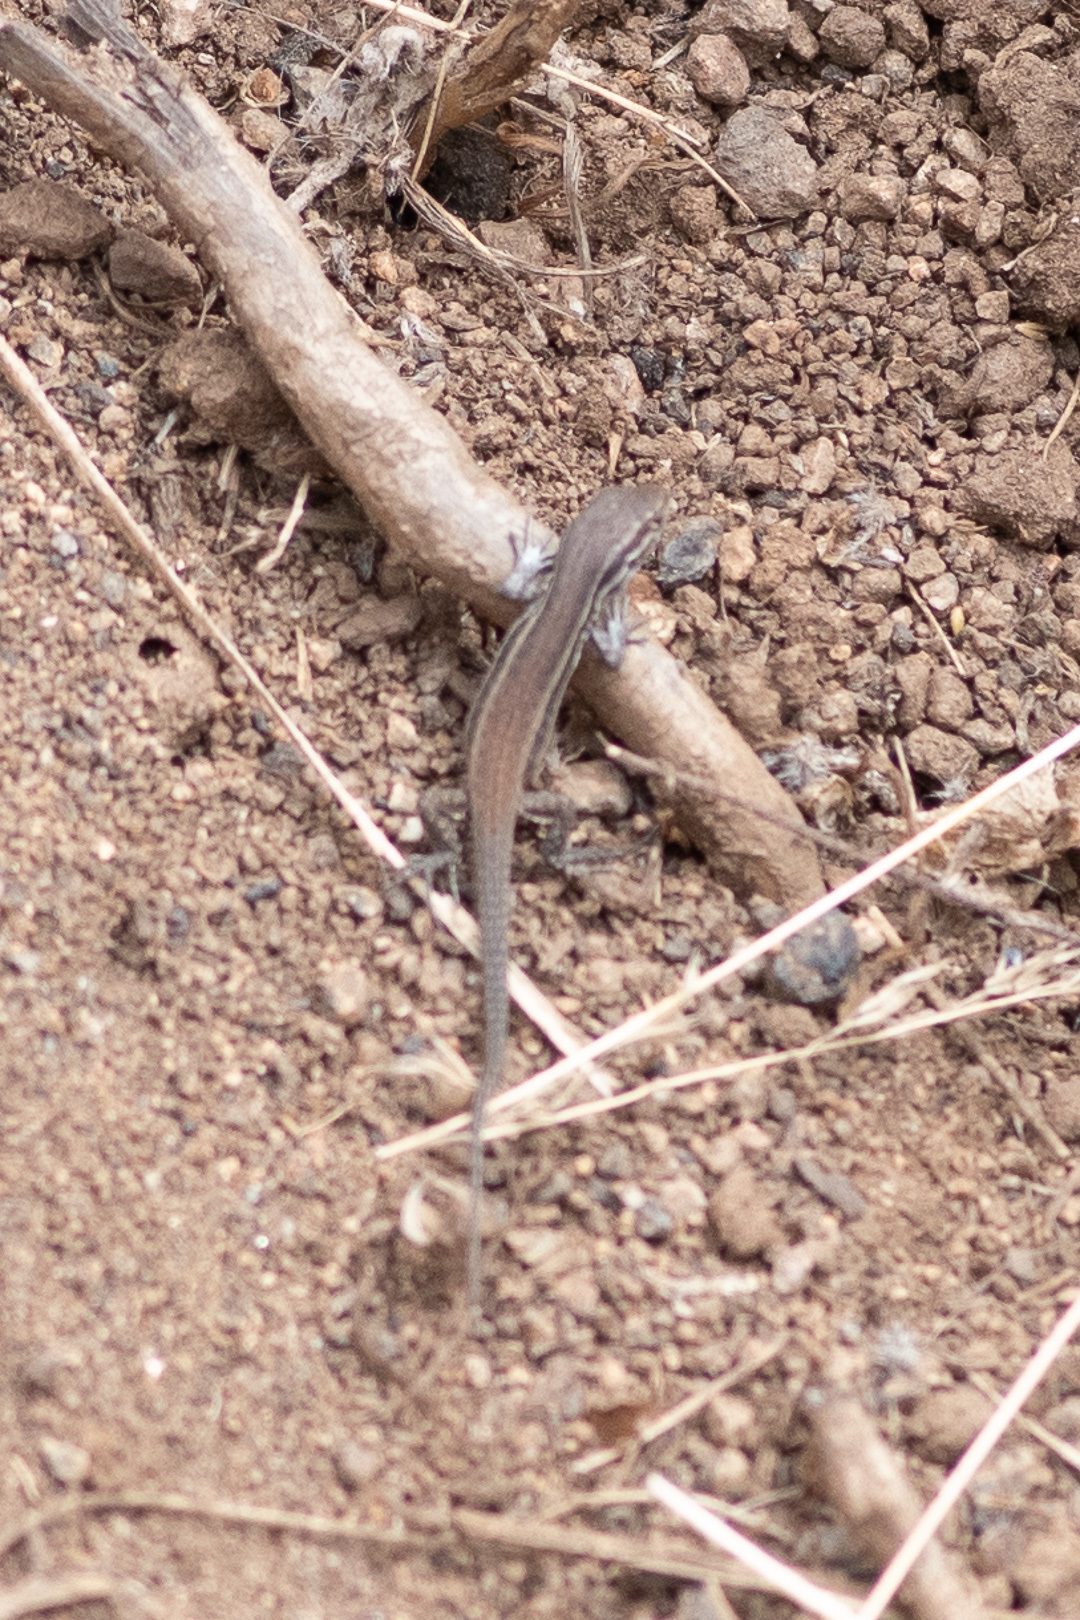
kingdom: Animalia
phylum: Chordata
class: Squamata
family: Liolaemidae
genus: Liolaemus
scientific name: Liolaemus fuscus
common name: Brown tree iguana
